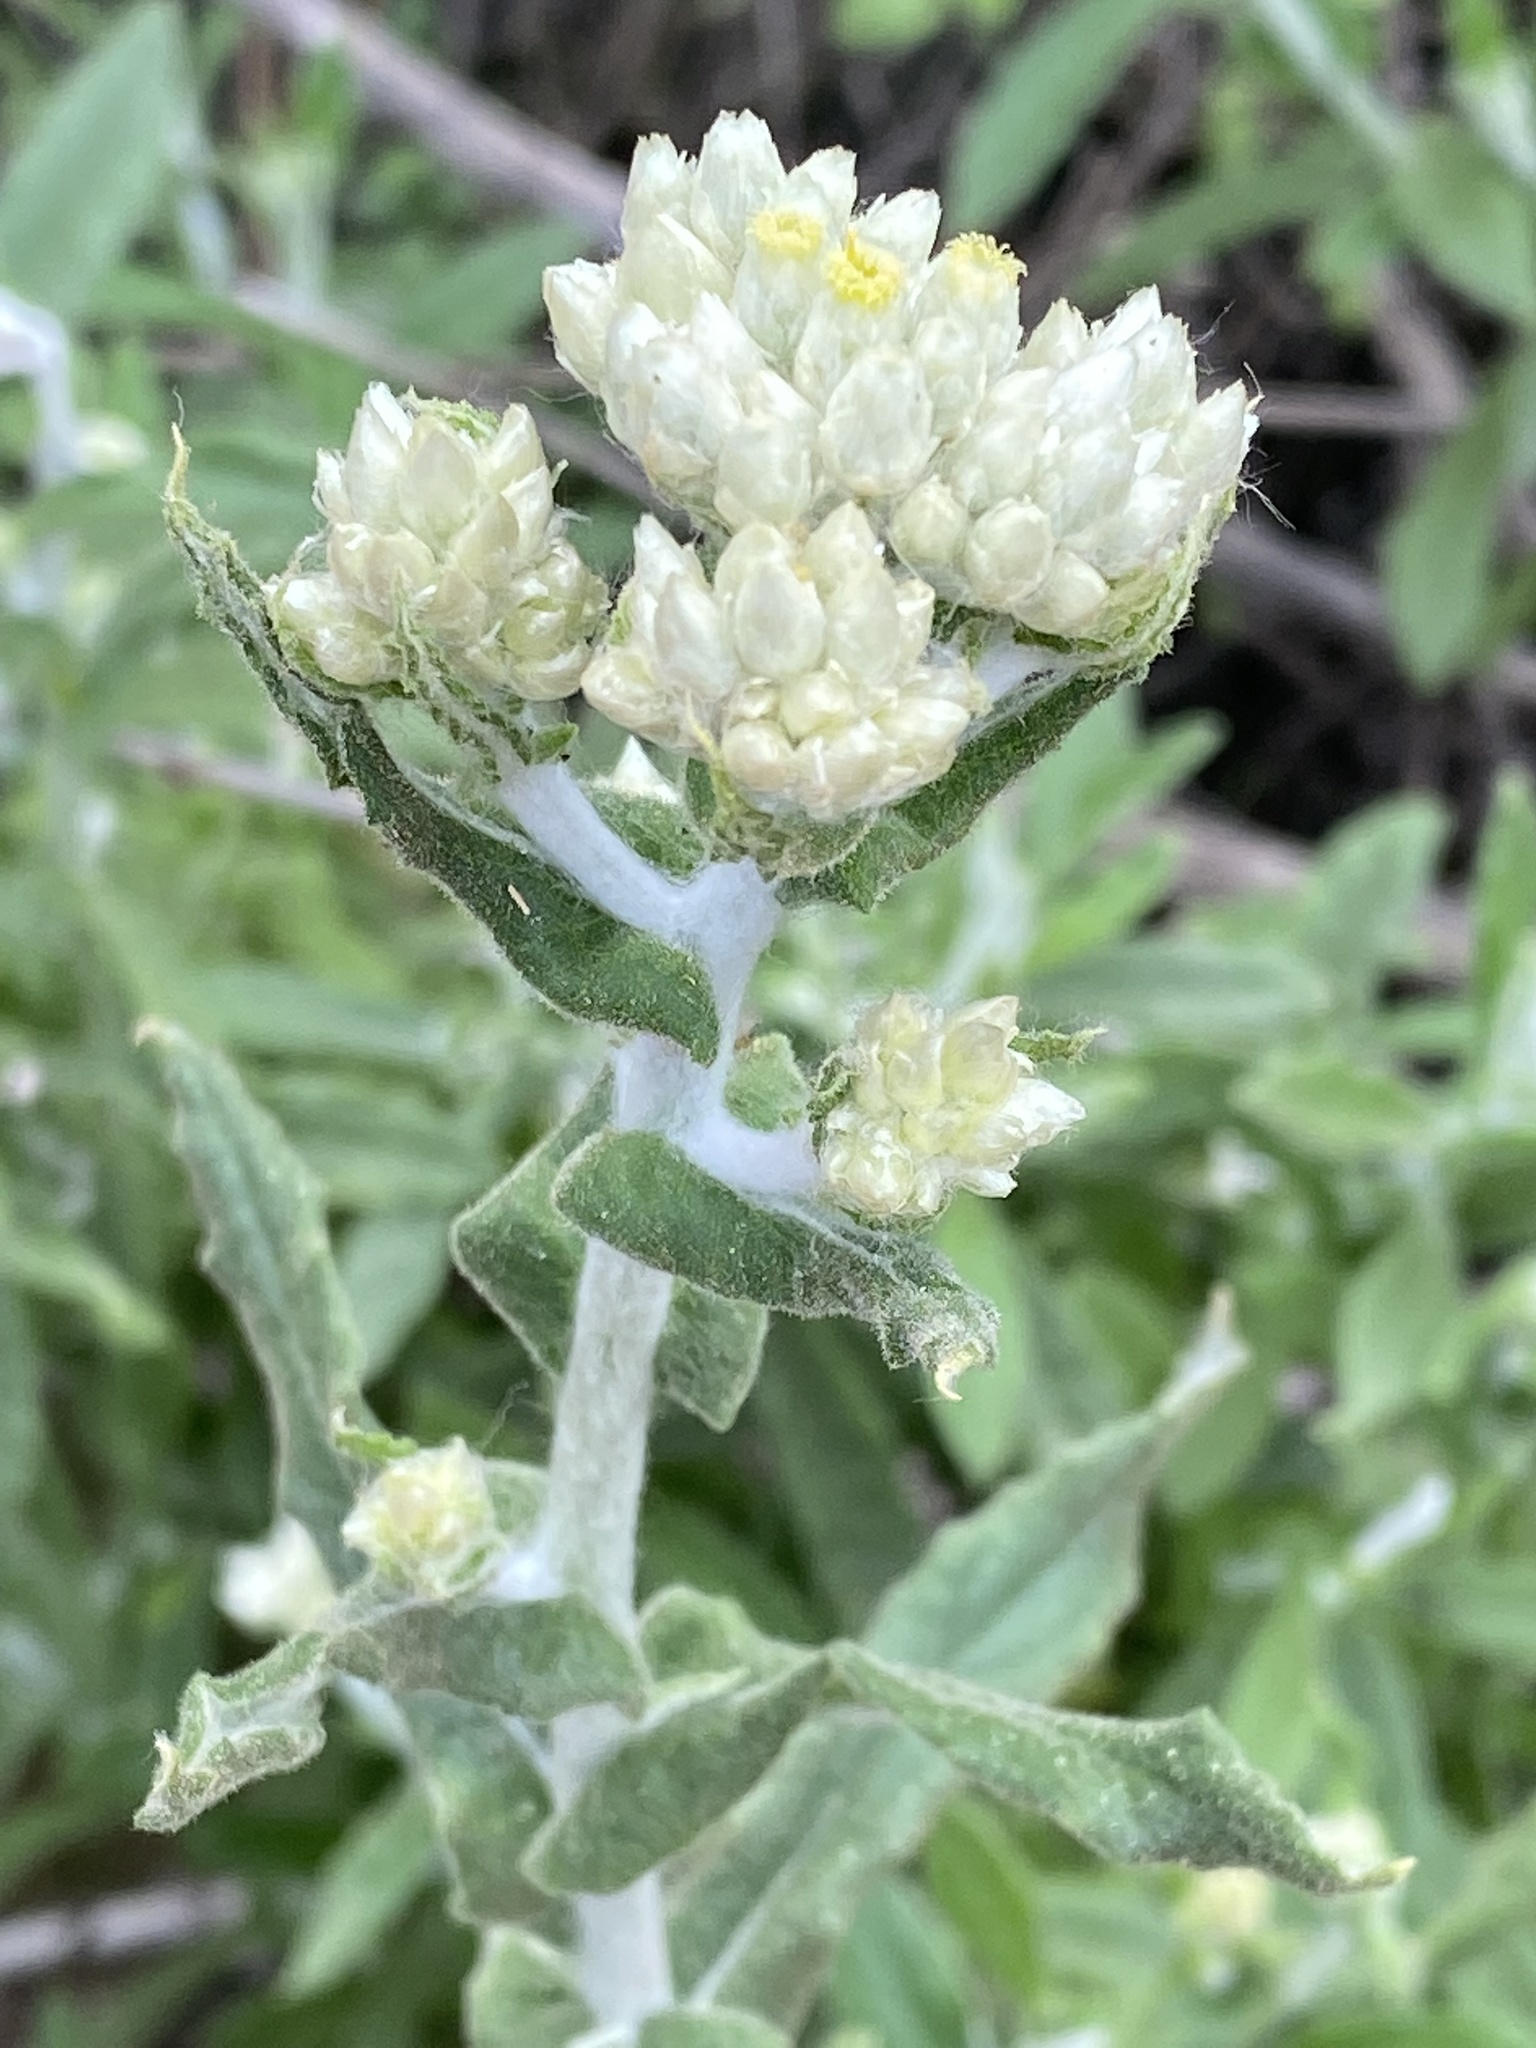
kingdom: Plantae
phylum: Tracheophyta
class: Magnoliopsida
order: Asterales
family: Asteraceae
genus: Pseudognaphalium
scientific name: Pseudognaphalium biolettii
